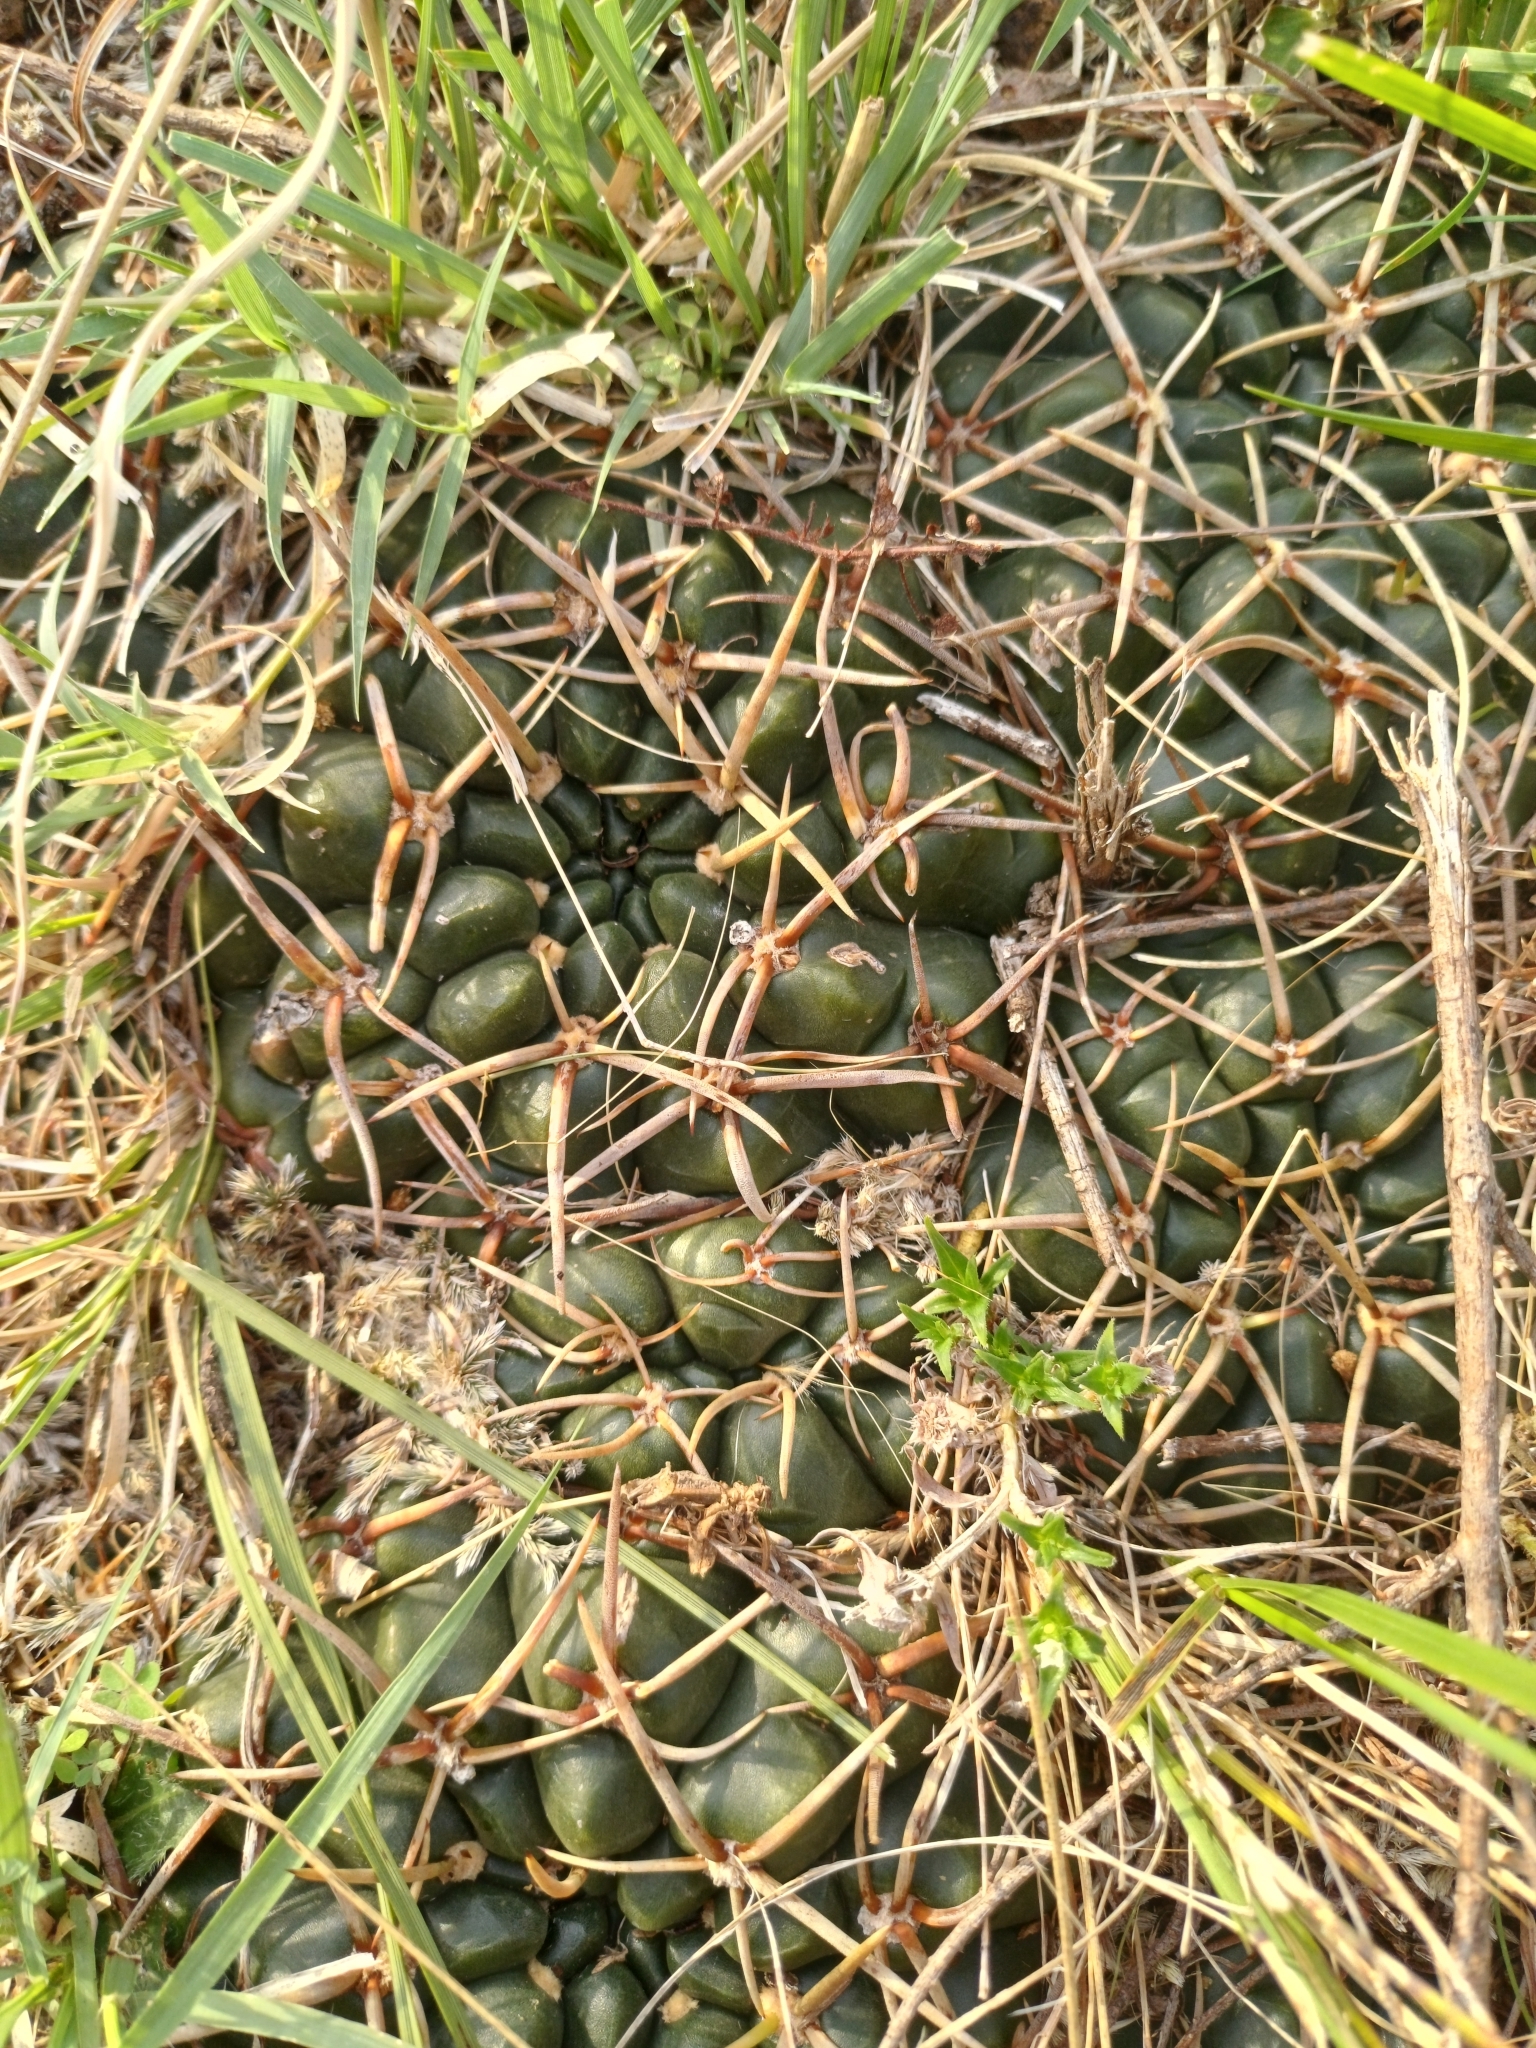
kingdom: Plantae
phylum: Tracheophyta
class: Magnoliopsida
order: Caryophyllales
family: Cactaceae
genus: Gymnocalycium
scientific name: Gymnocalycium hossei
